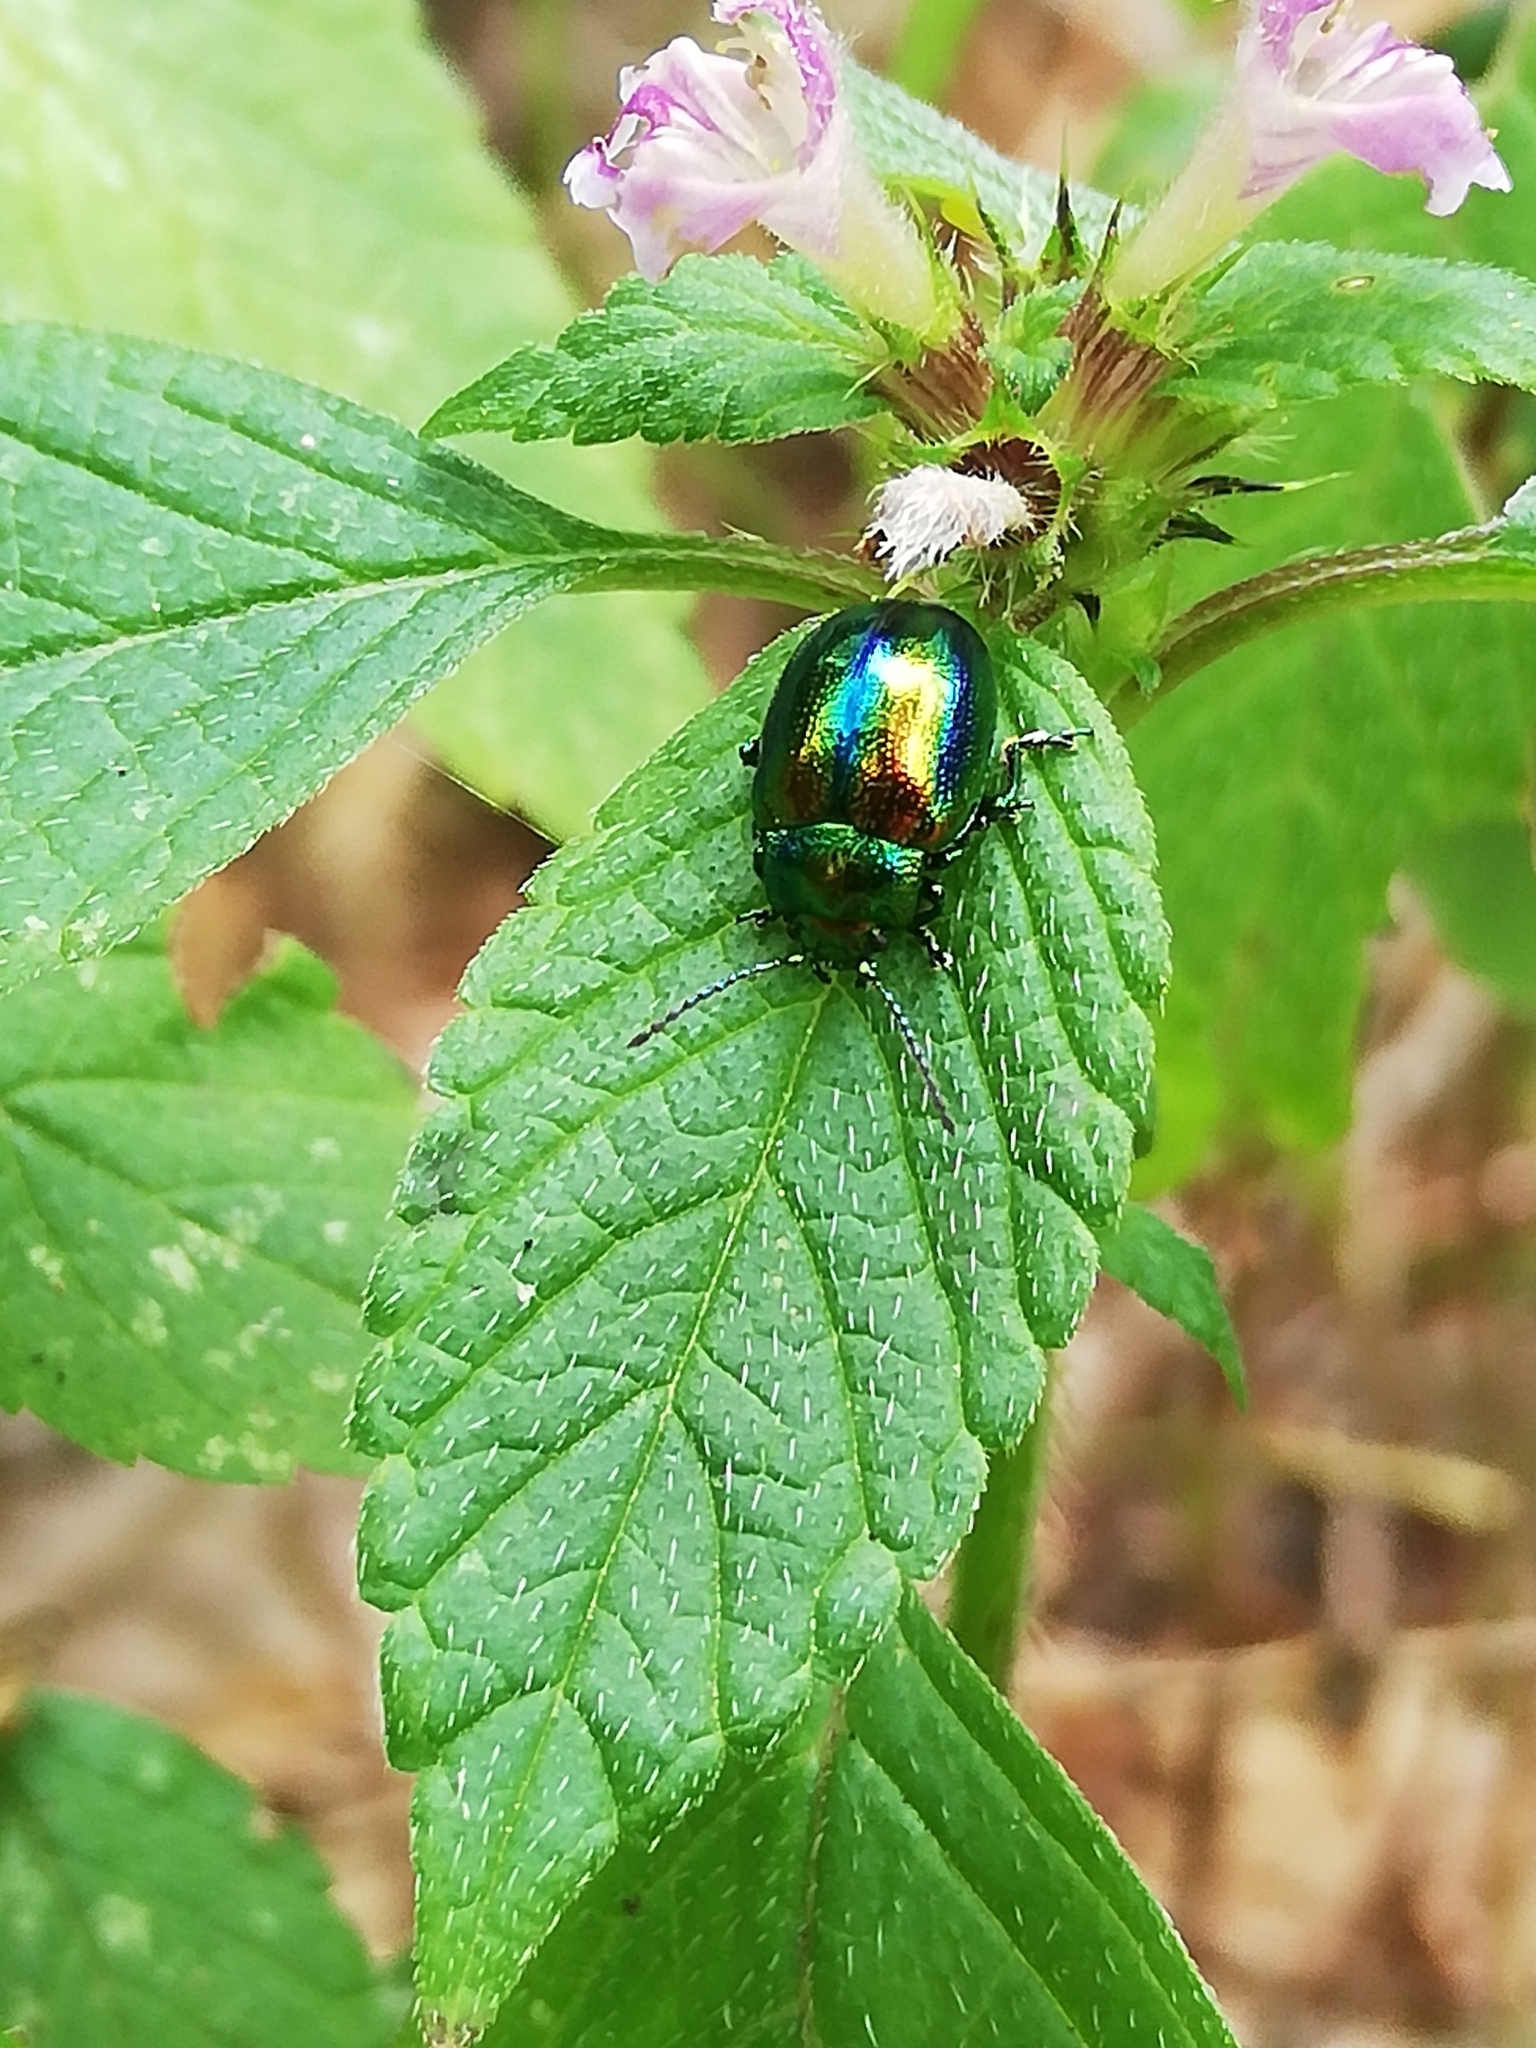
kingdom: Animalia
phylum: Arthropoda
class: Insecta
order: Coleoptera
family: Chrysomelidae
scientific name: Chrysomelidae
